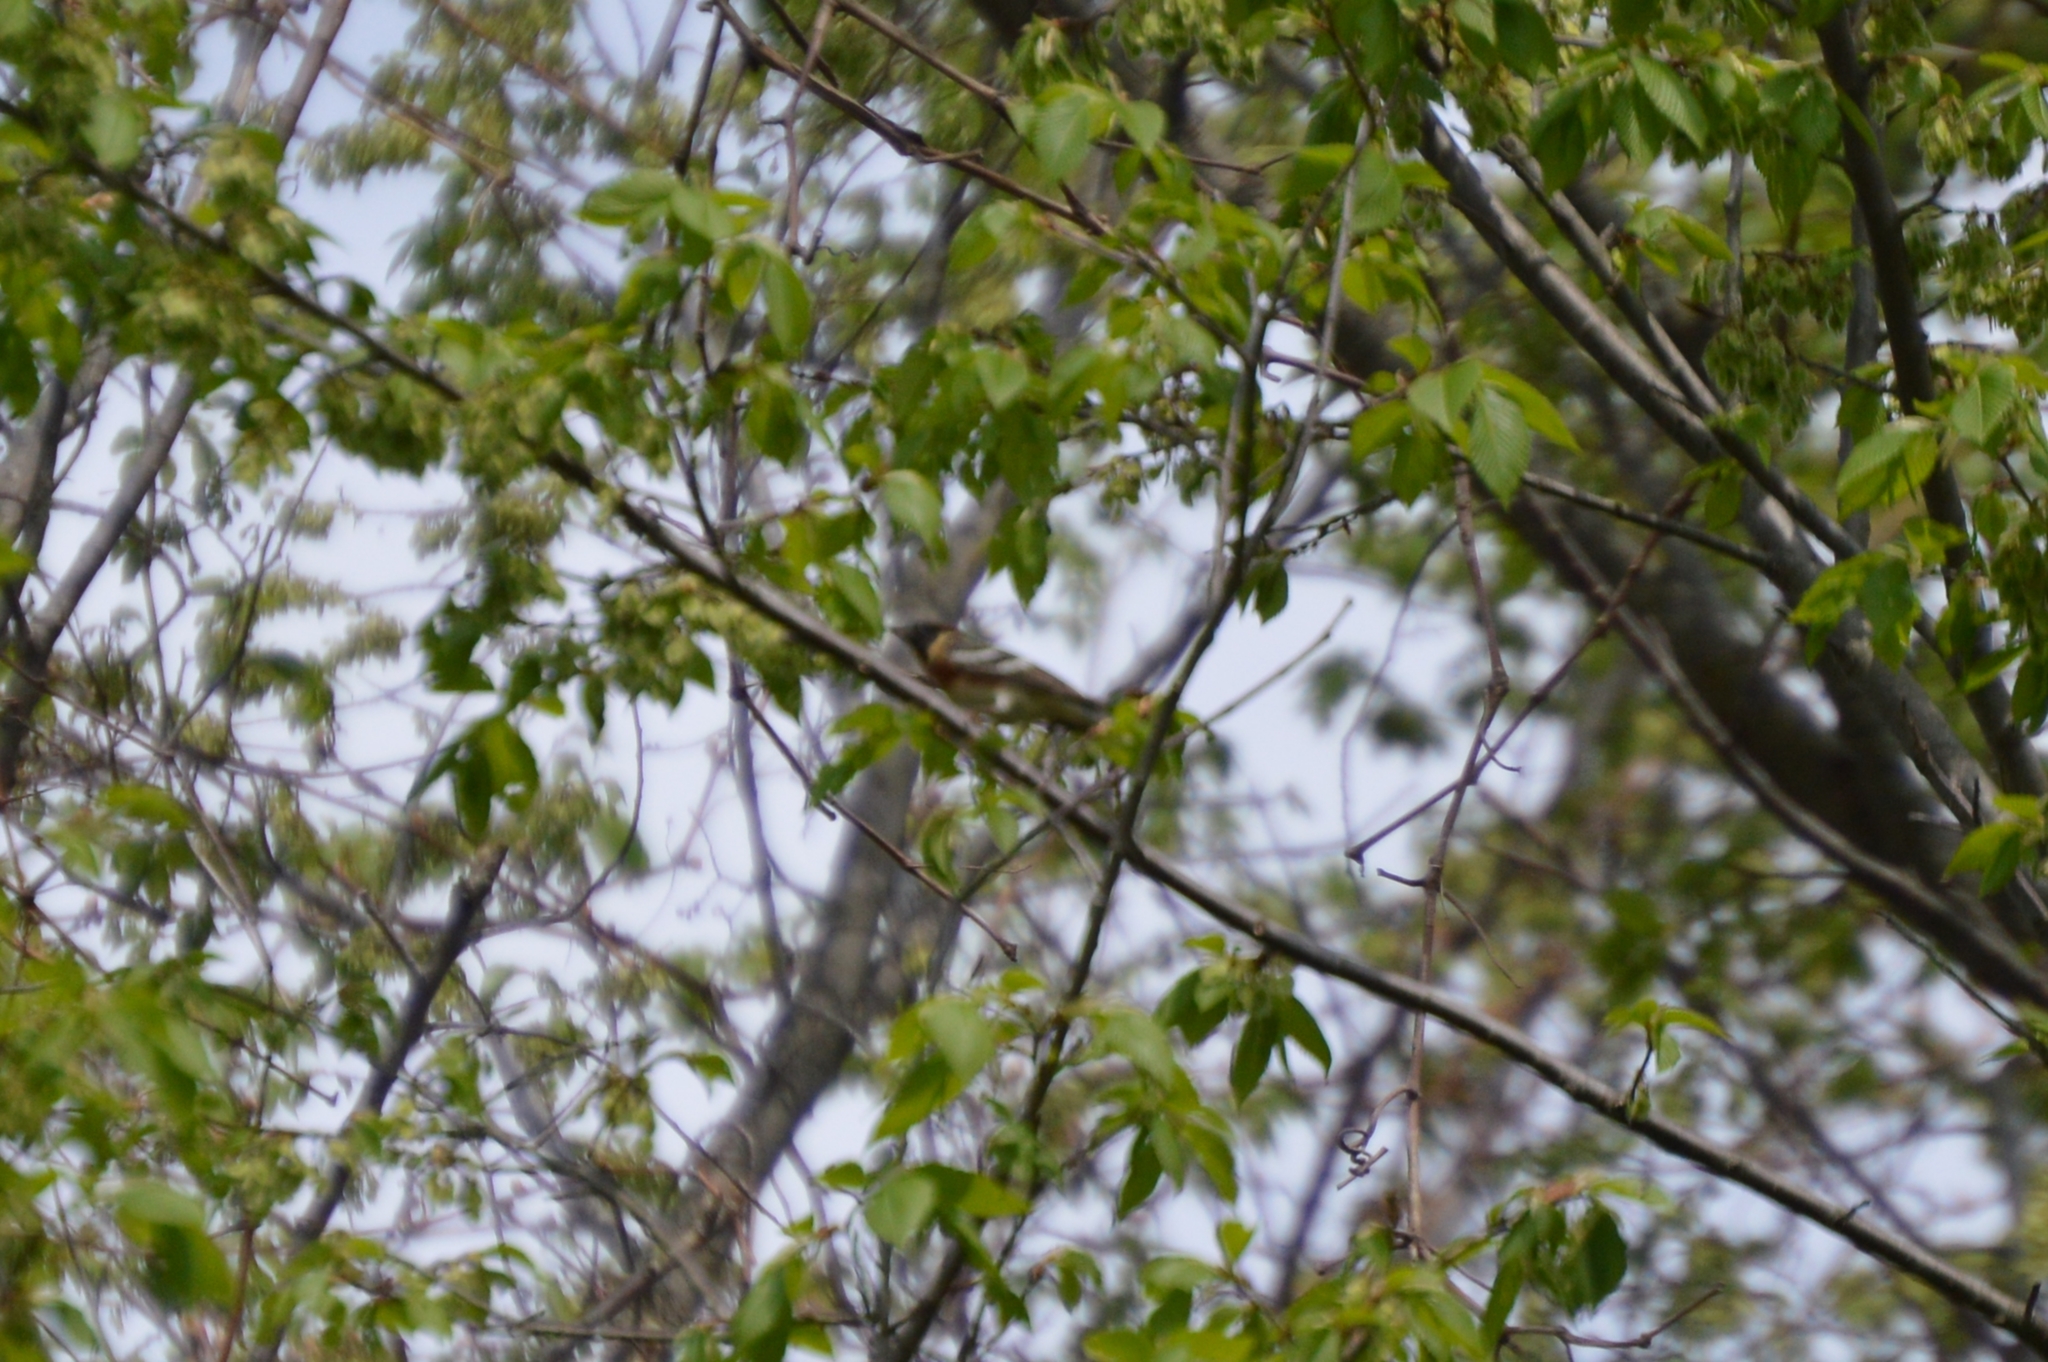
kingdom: Animalia
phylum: Chordata
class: Aves
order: Passeriformes
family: Parulidae
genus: Setophaga
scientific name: Setophaga castanea
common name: Bay-breasted warbler
